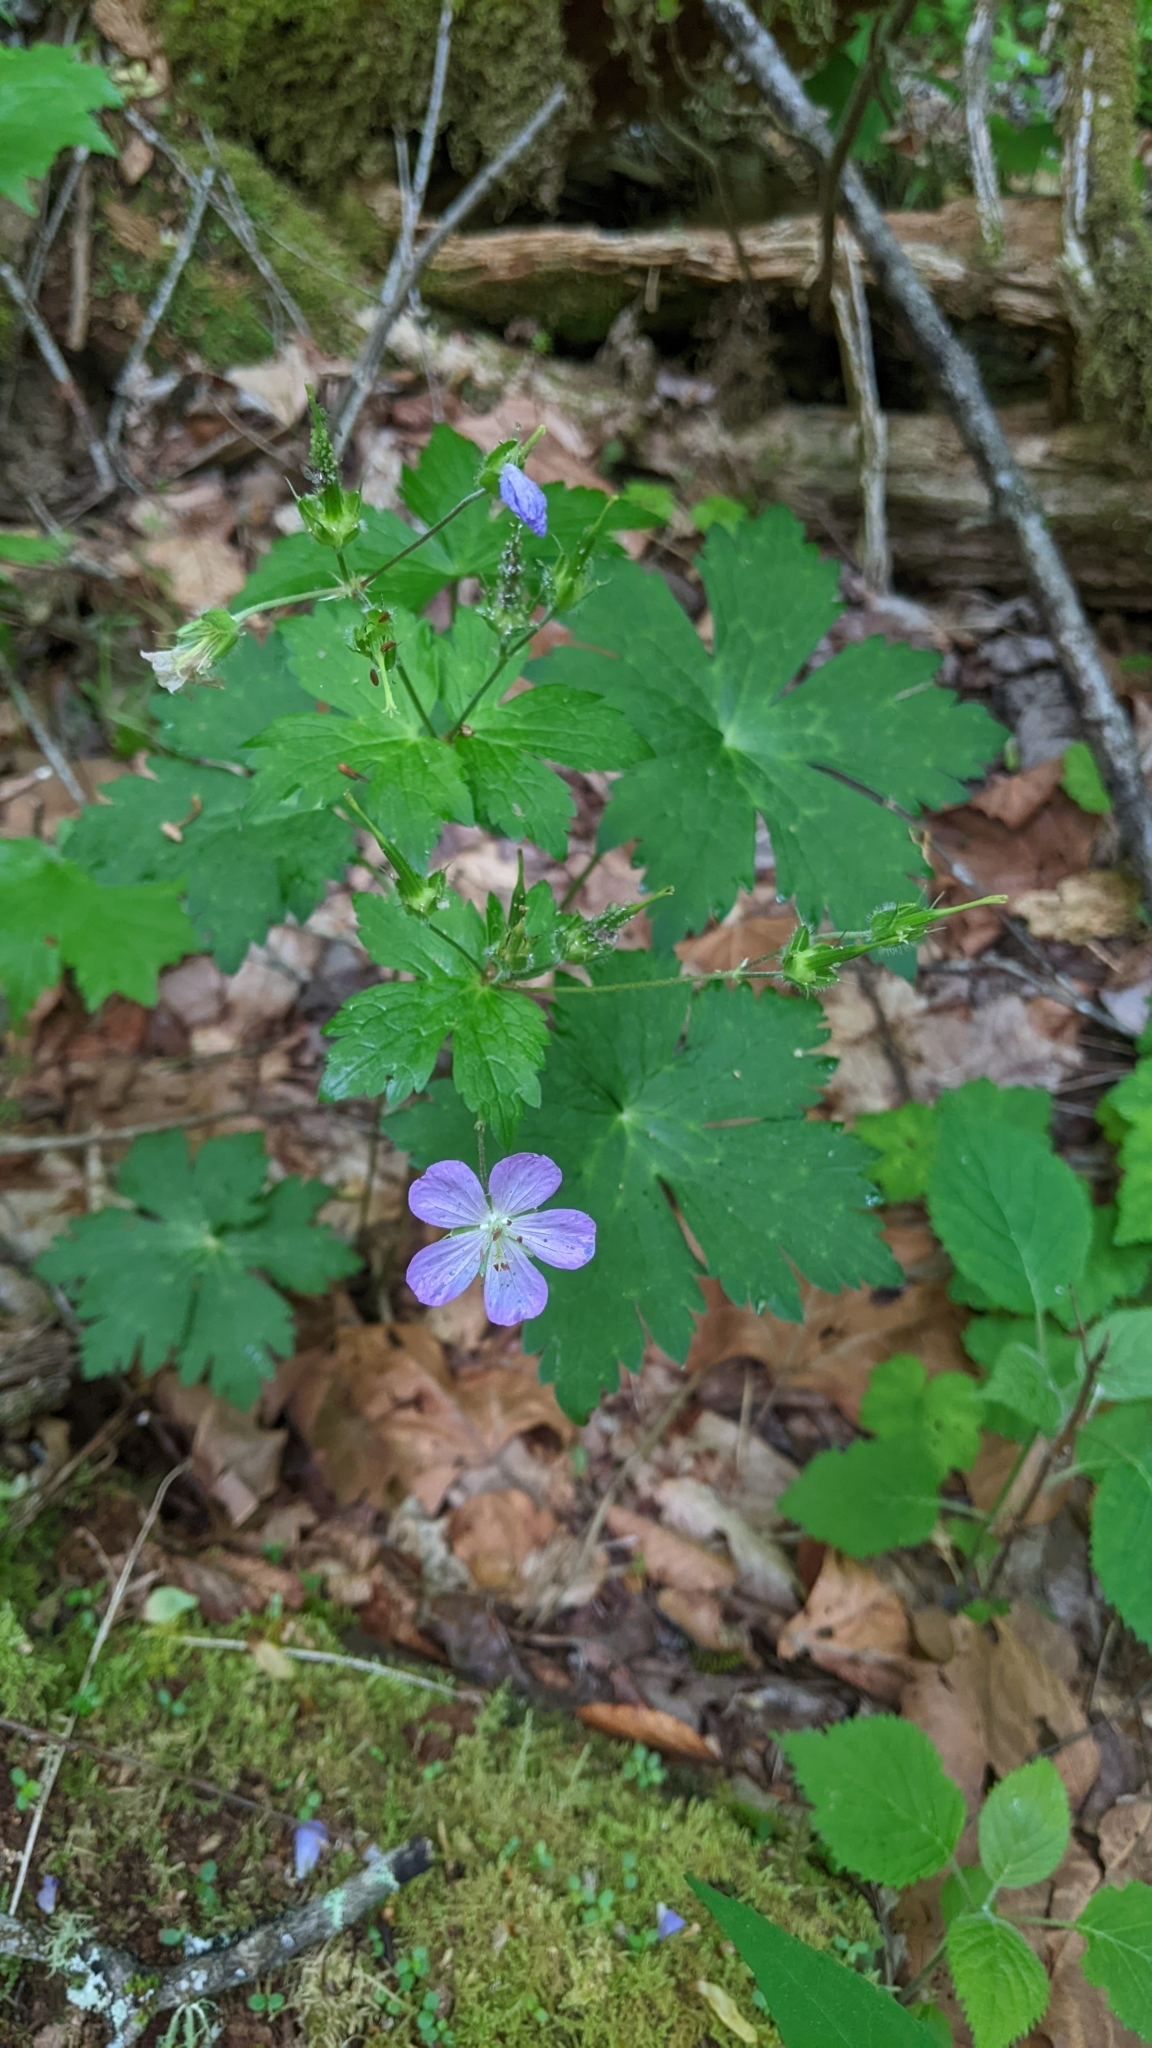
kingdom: Plantae
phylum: Tracheophyta
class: Magnoliopsida
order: Geraniales
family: Geraniaceae
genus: Geranium
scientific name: Geranium maculatum
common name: Spotted geranium
